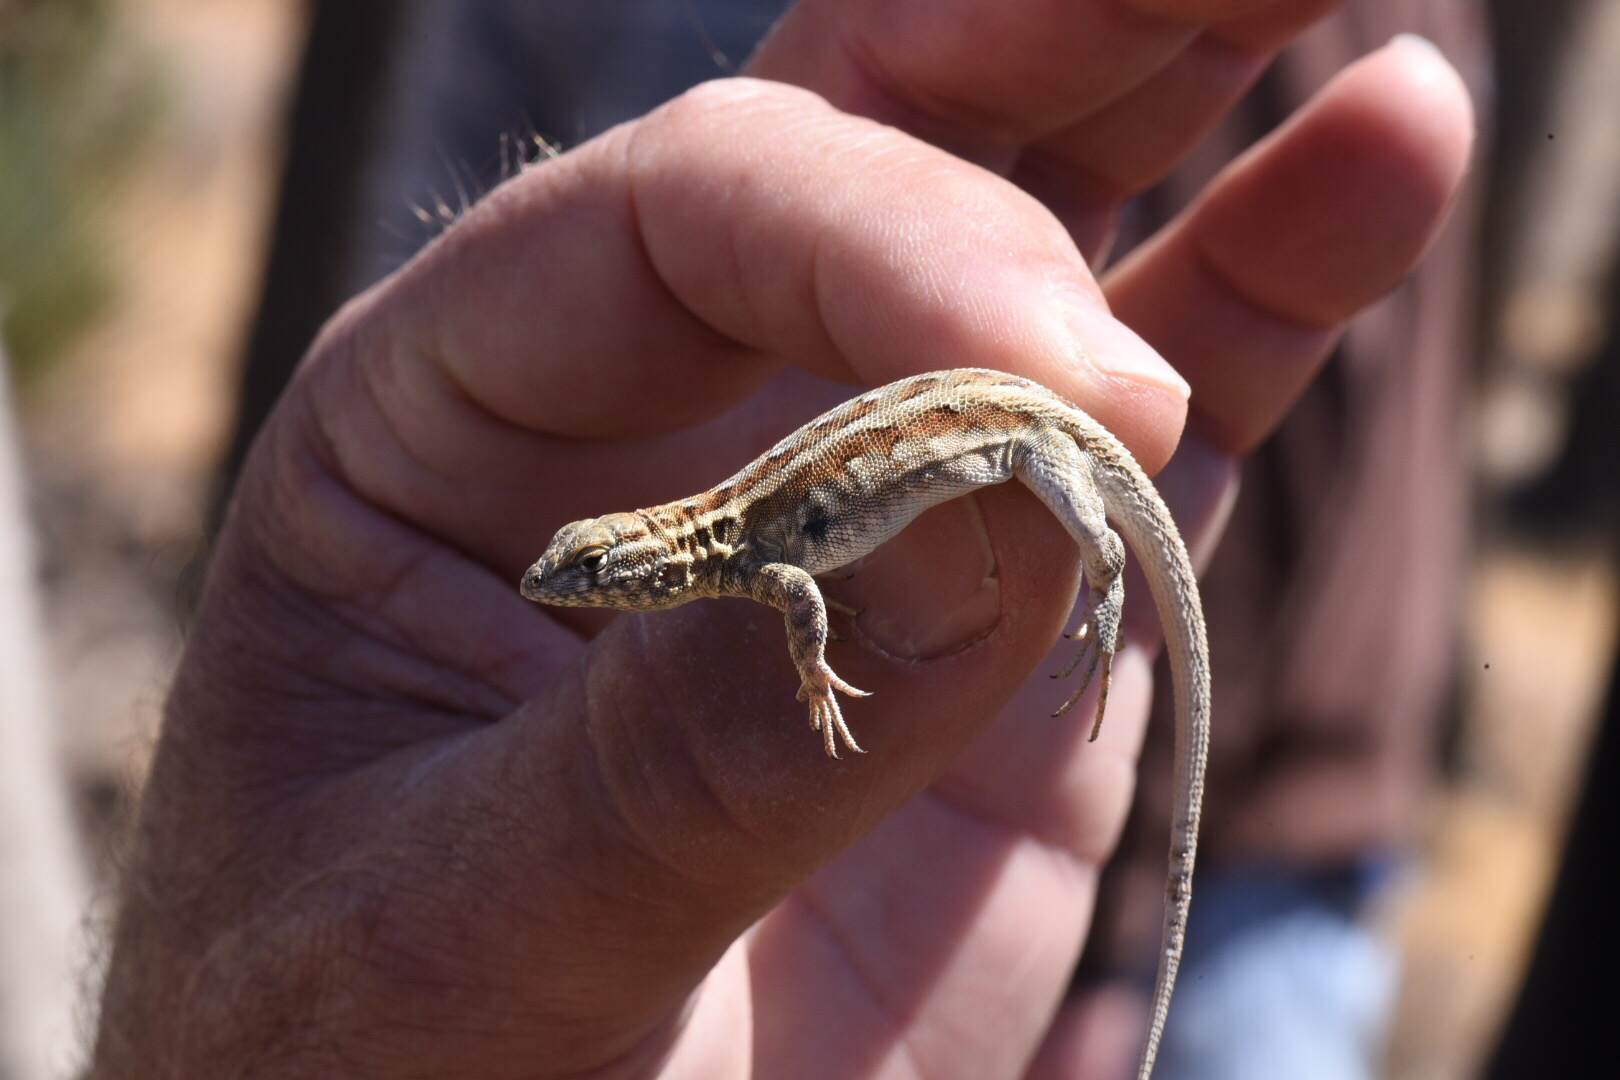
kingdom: Animalia
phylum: Chordata
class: Squamata
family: Phrynosomatidae
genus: Uta
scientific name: Uta stansburiana
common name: Side-blotched lizard
